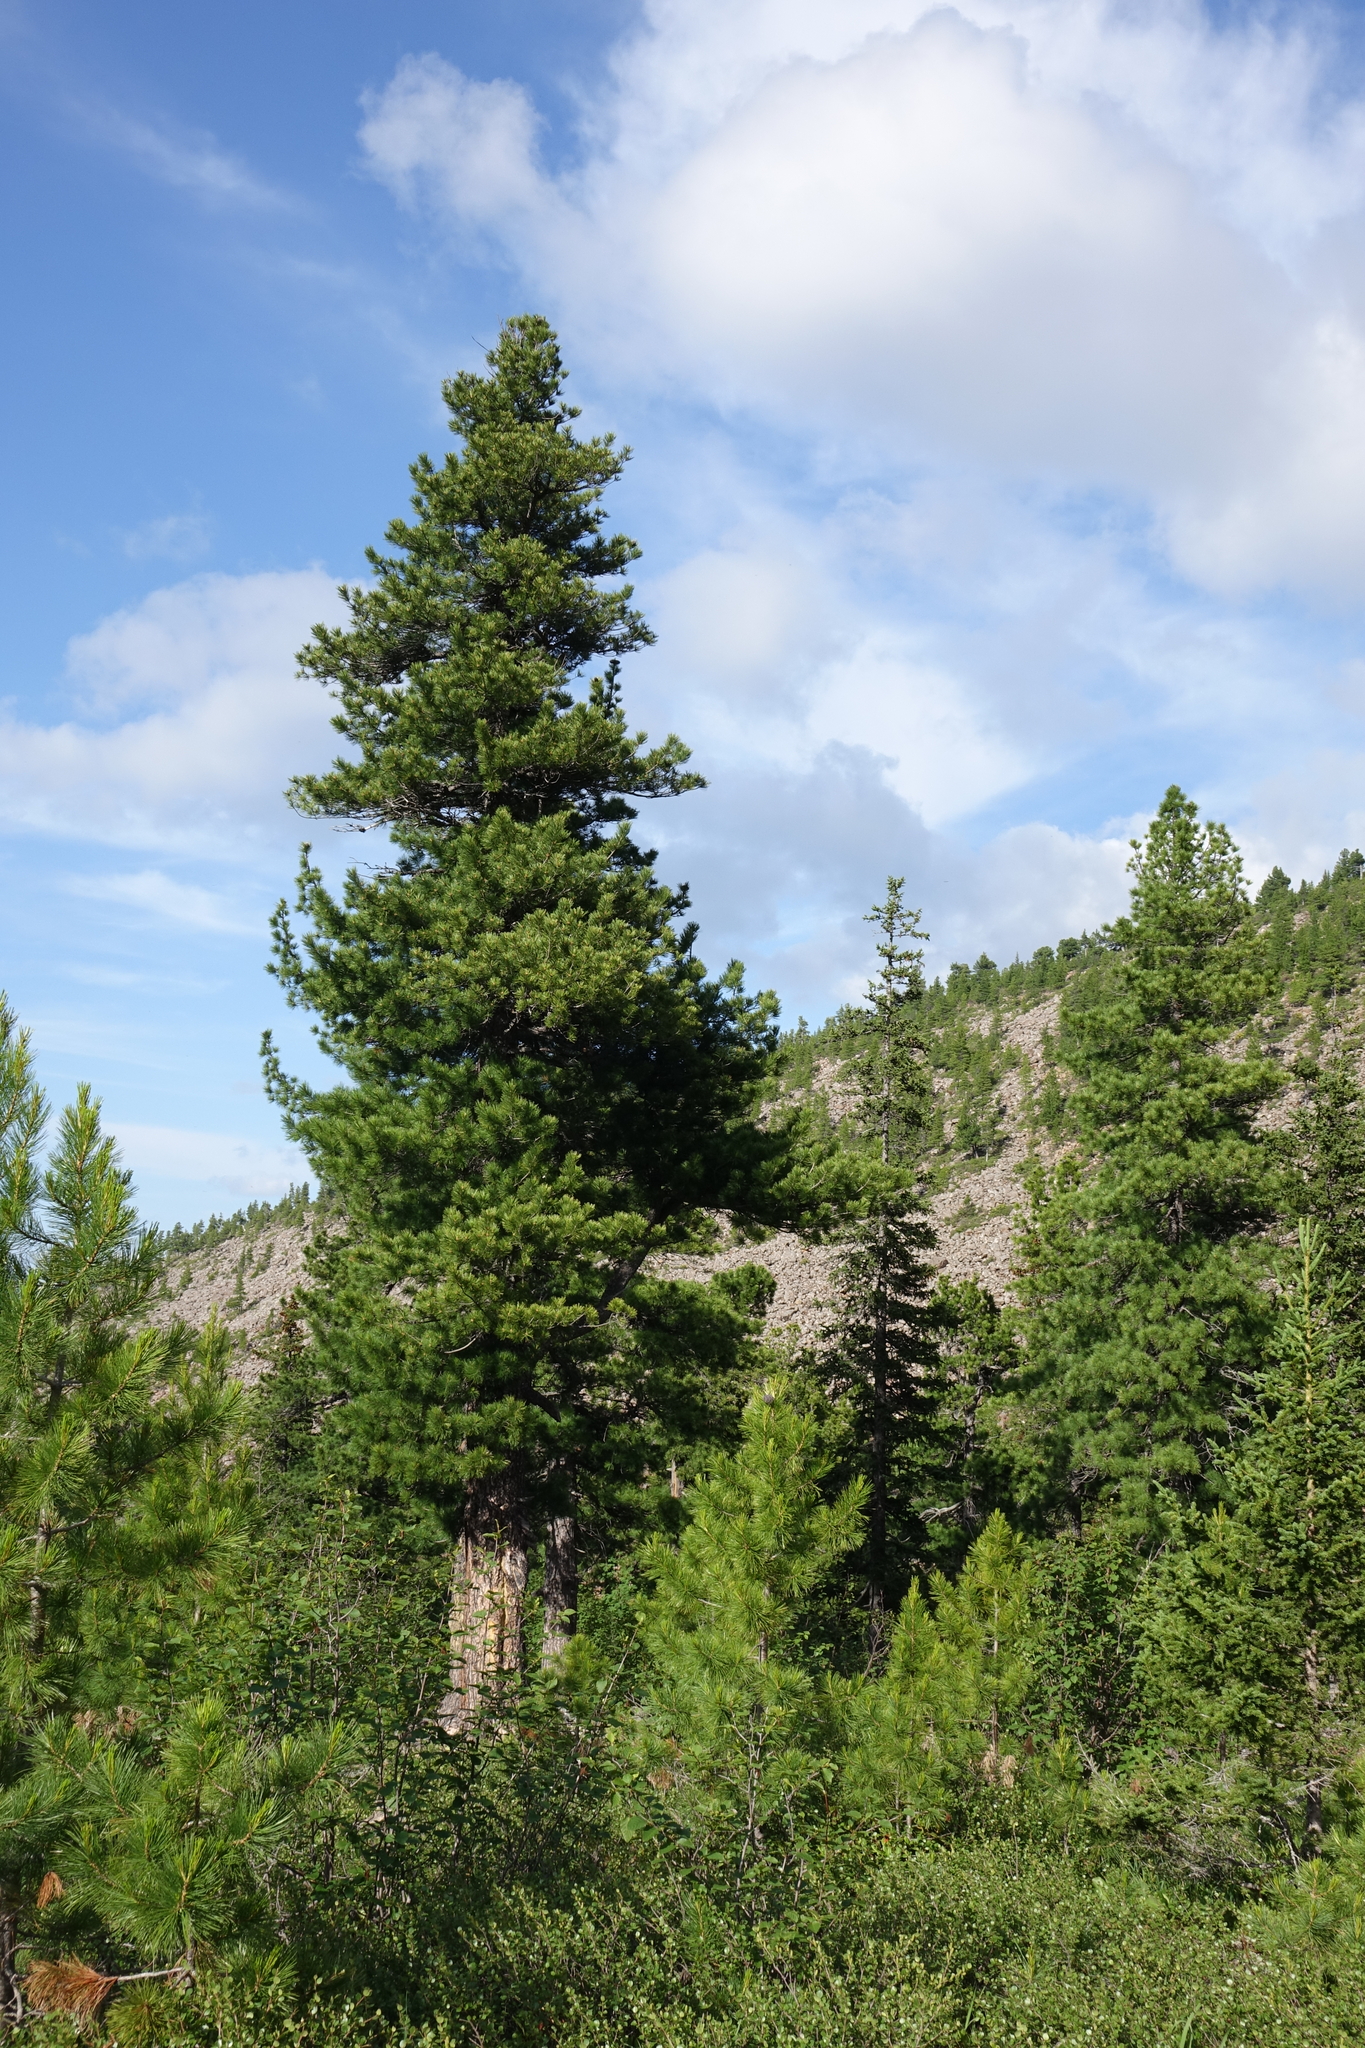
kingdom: Plantae
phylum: Tracheophyta
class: Pinopsida
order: Pinales
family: Pinaceae
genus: Pinus
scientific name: Pinus sibirica
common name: Siberian pine
